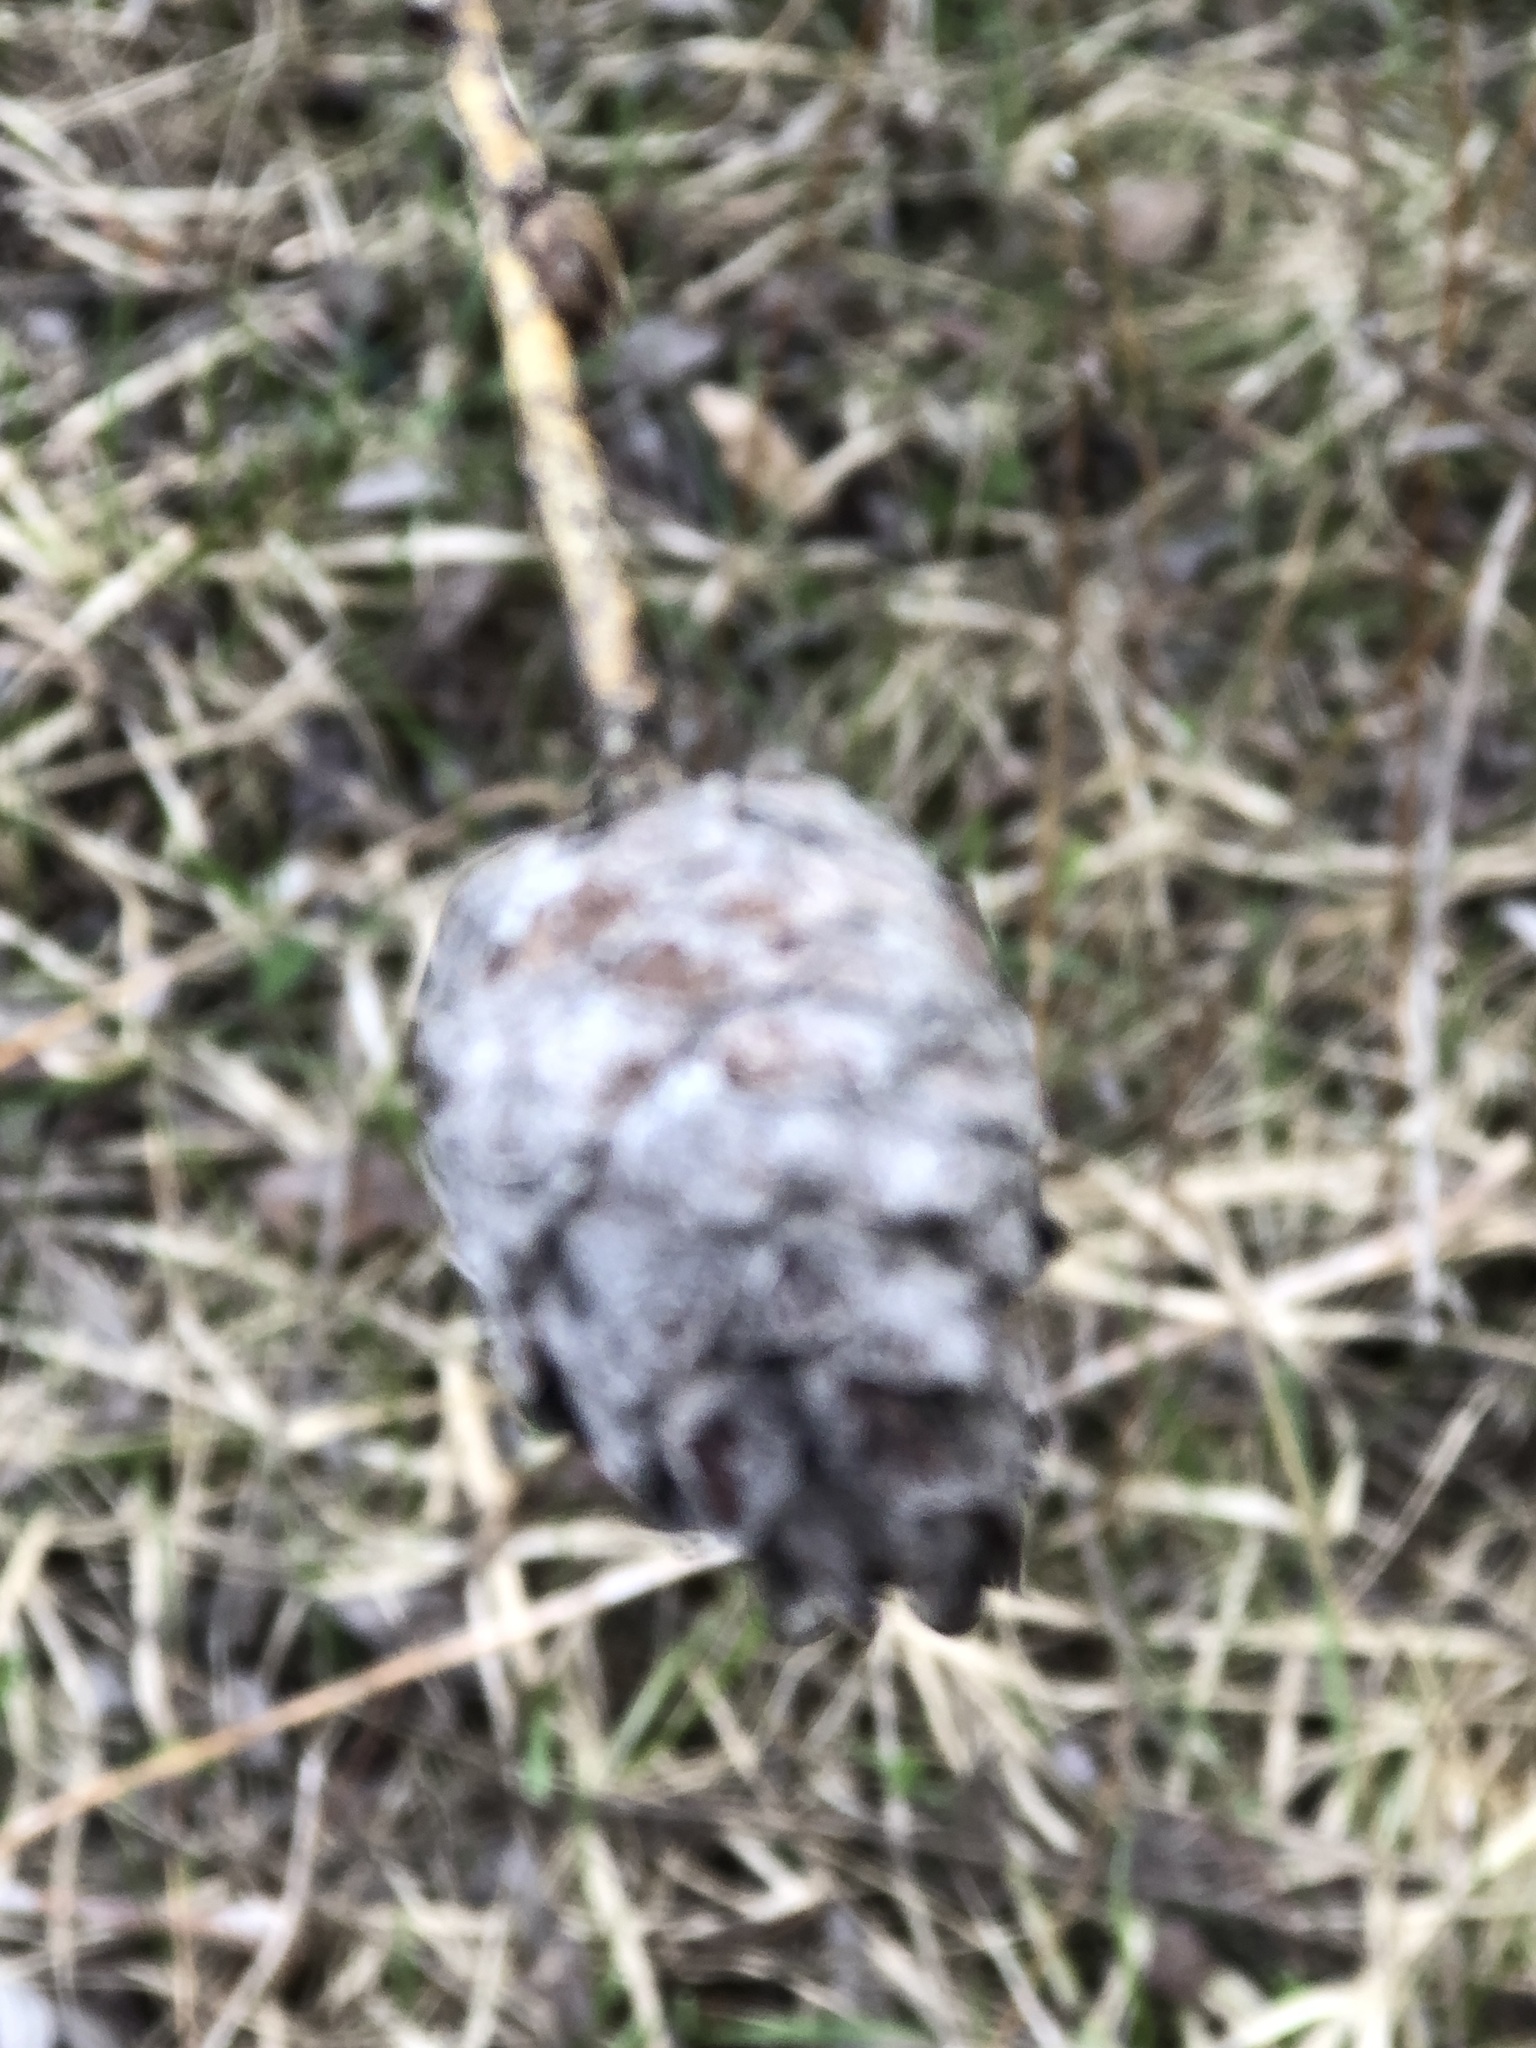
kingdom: Animalia
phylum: Arthropoda
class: Insecta
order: Diptera
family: Cecidomyiidae
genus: Rabdophaga
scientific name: Rabdophaga strobiloides
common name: Willow pinecone gall midge
